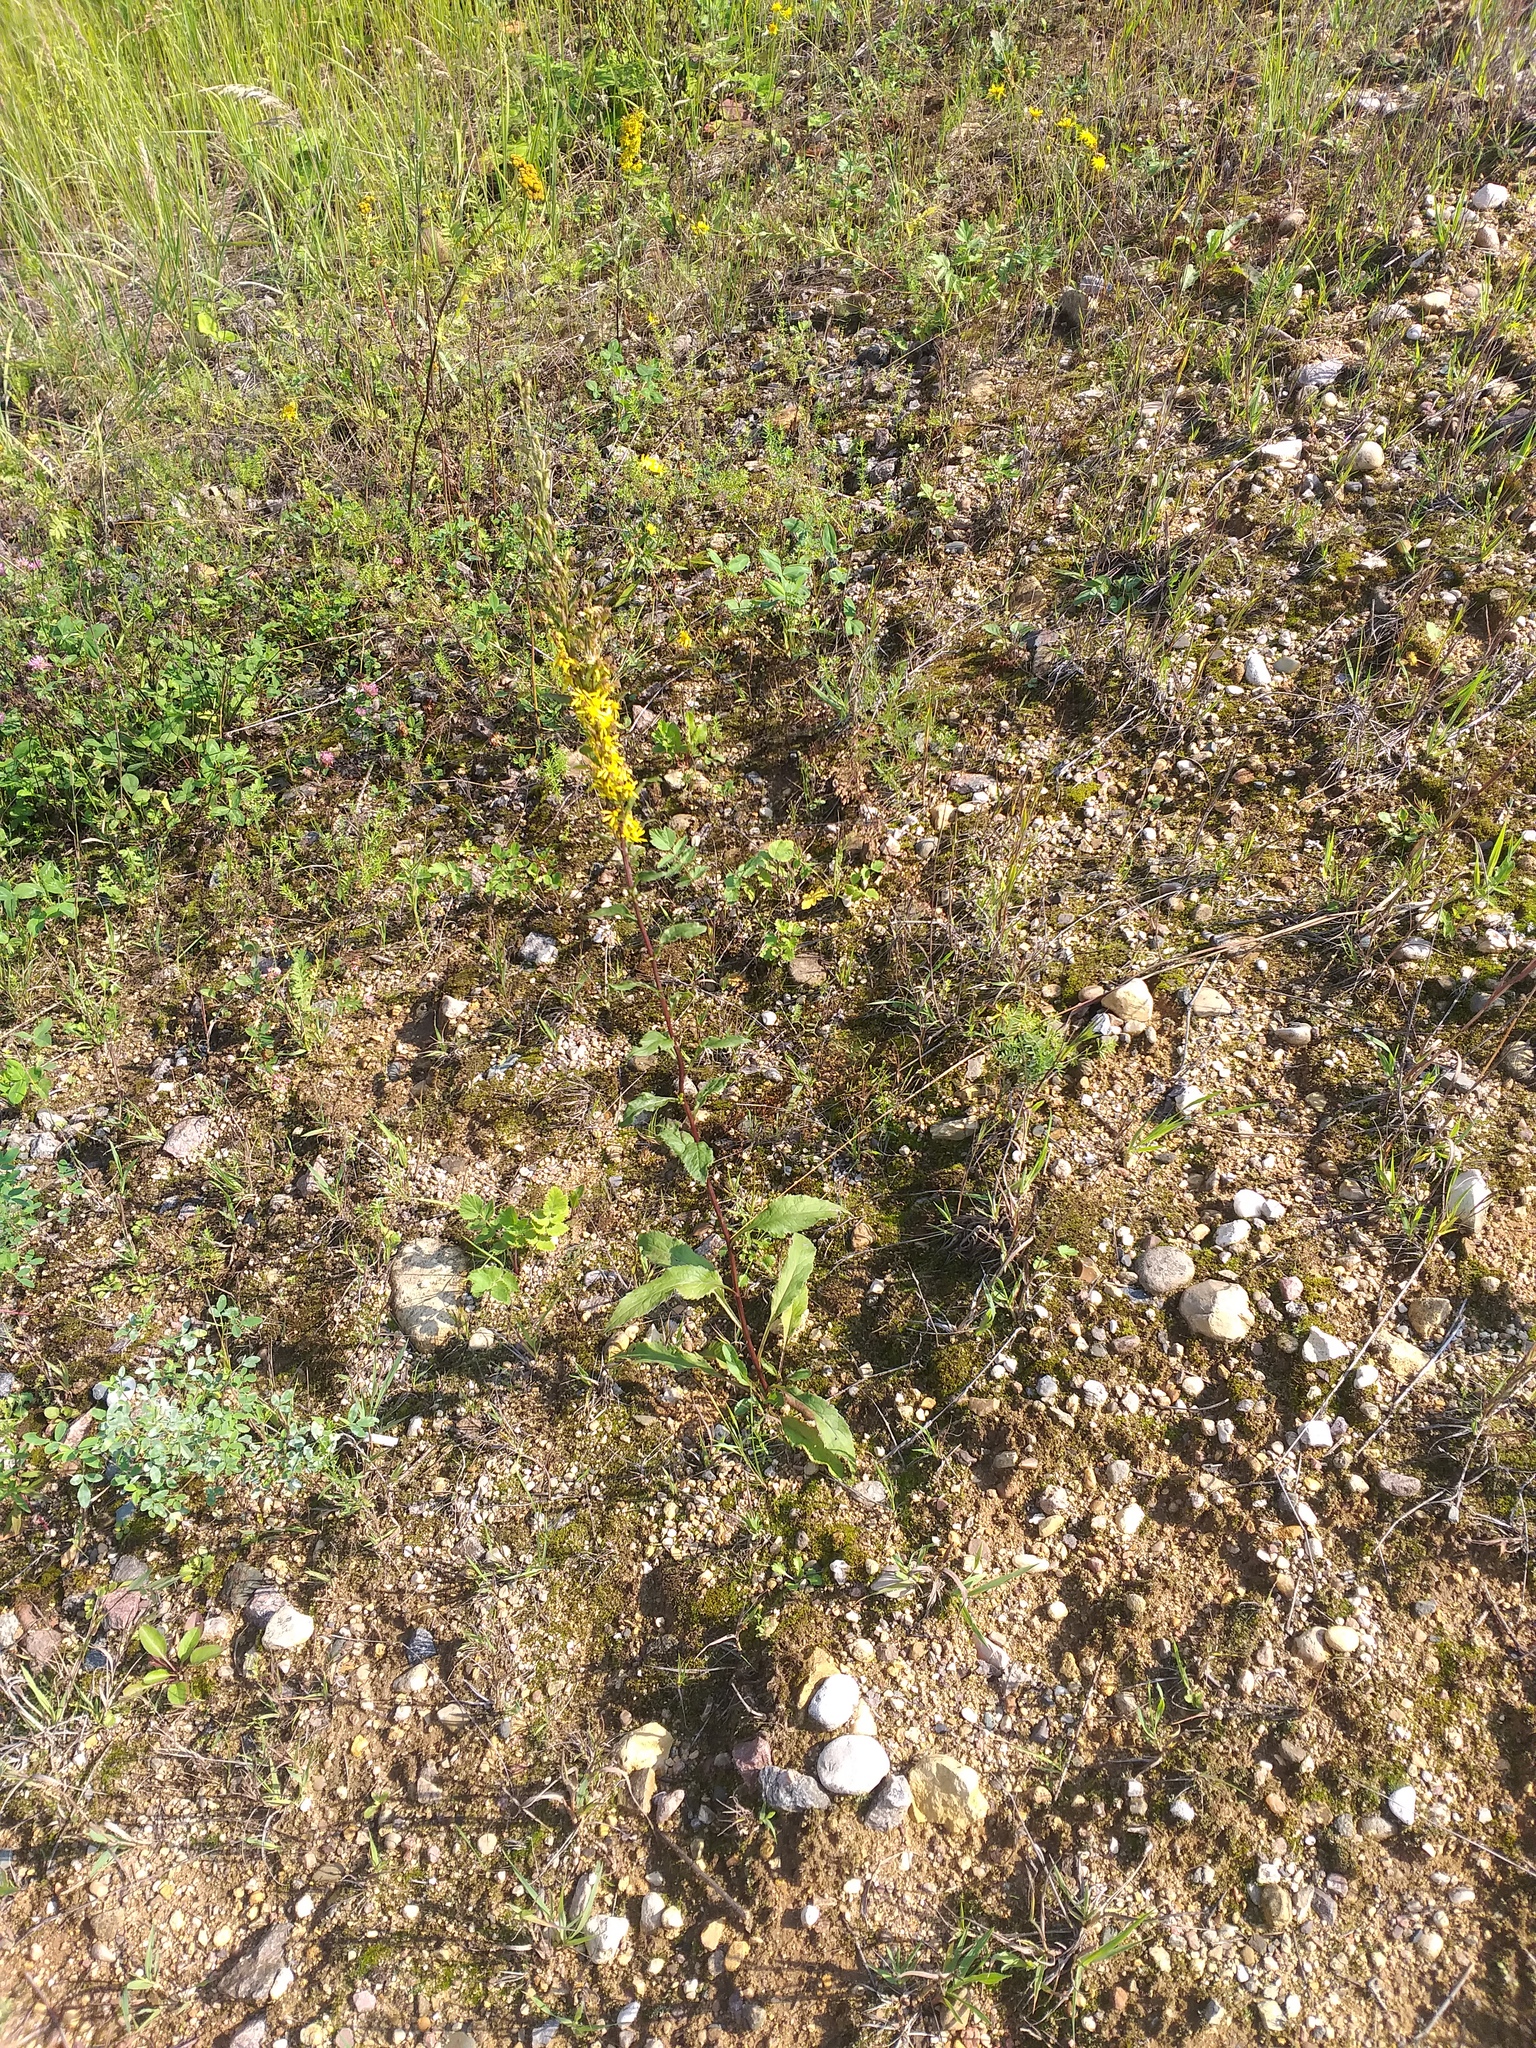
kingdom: Plantae
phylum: Tracheophyta
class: Magnoliopsida
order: Asterales
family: Asteraceae
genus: Solidago
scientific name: Solidago virgaurea
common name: Goldenrod
